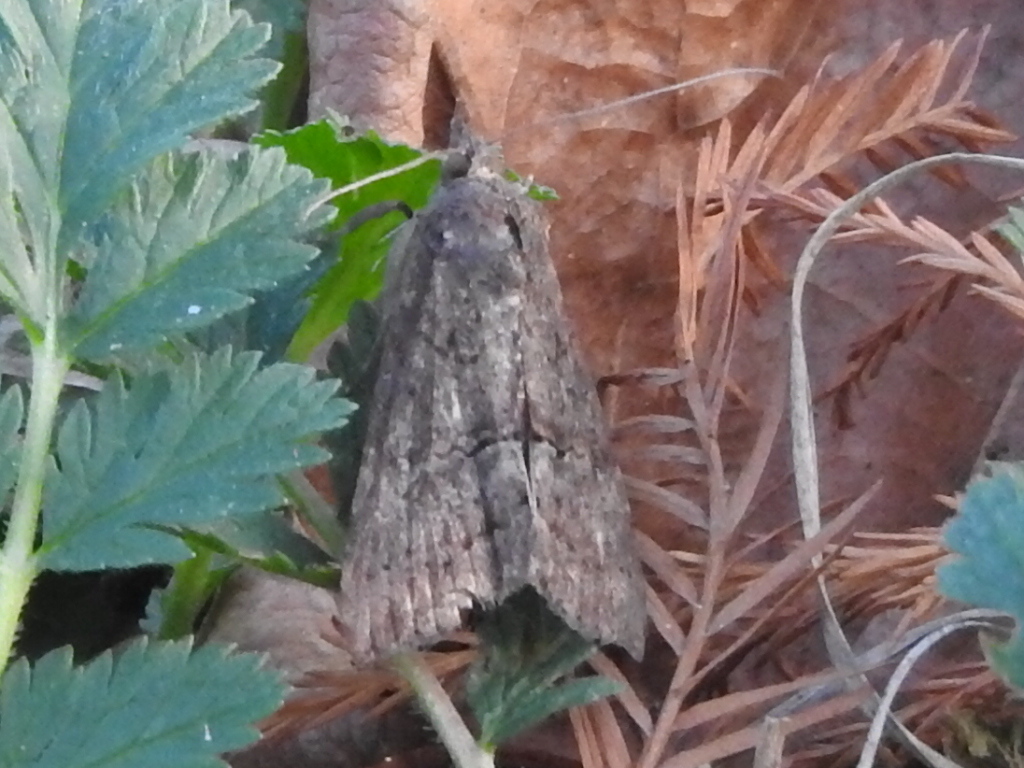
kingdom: Animalia
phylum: Arthropoda
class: Insecta
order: Lepidoptera
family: Erebidae
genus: Hypena
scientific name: Hypena scabra
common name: Green cloverworm
